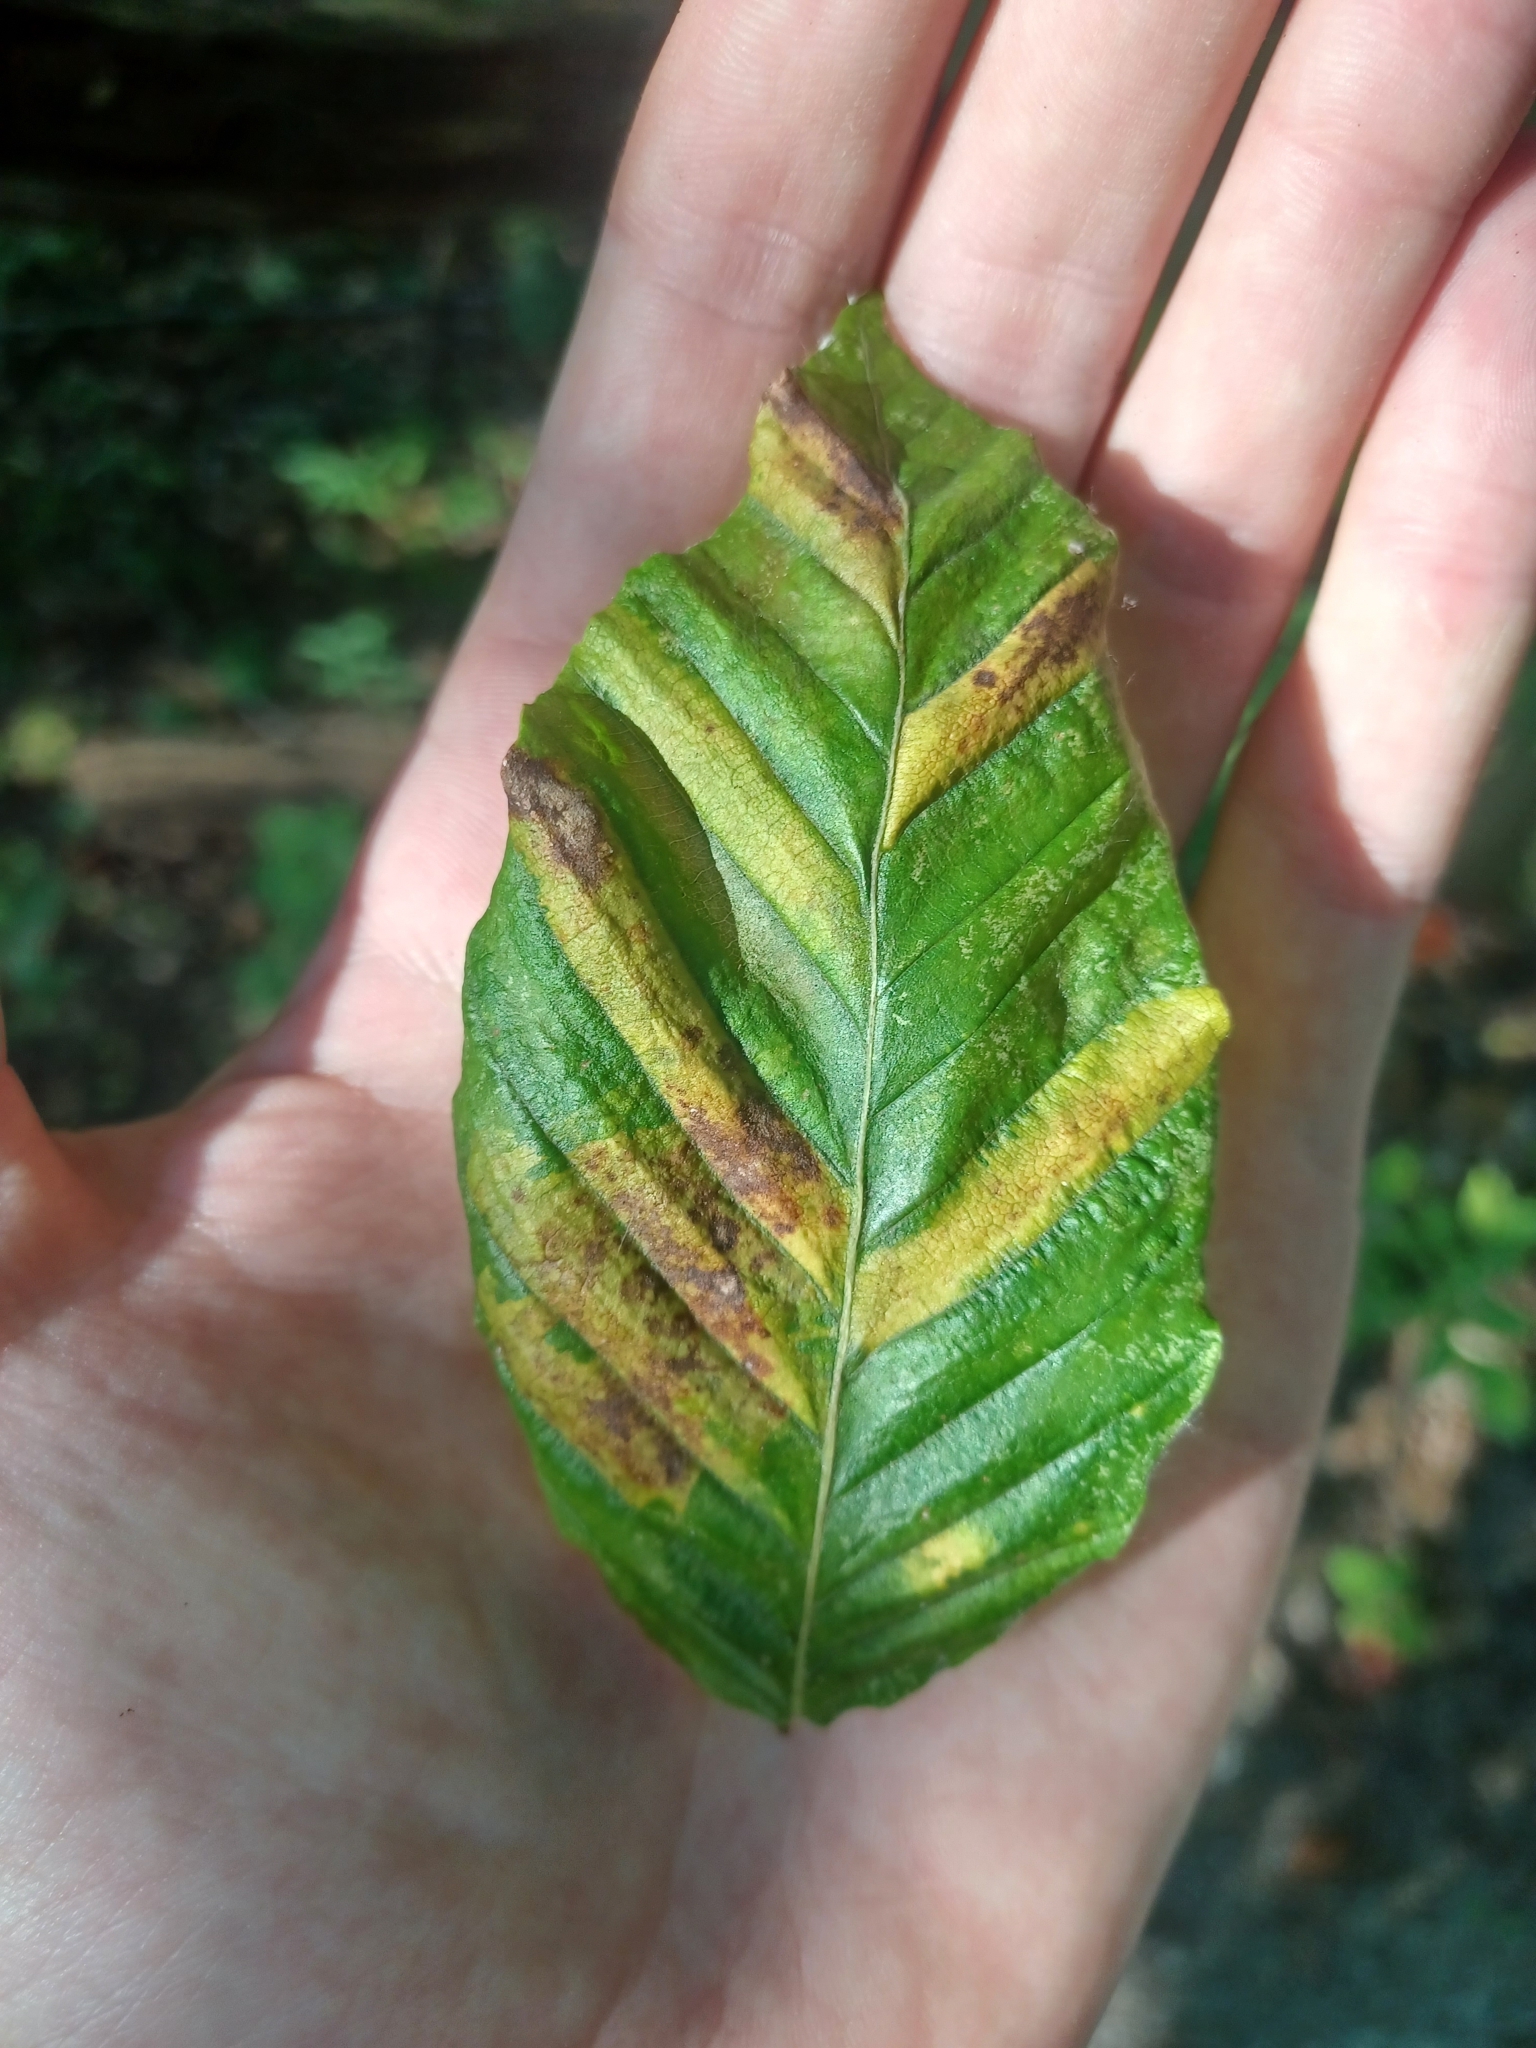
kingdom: Animalia
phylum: Nematoda
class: Chromadorea
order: Rhabditida
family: Anguinidae
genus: Litylenchus
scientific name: Litylenchus crenatae
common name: Beech leaf disease
